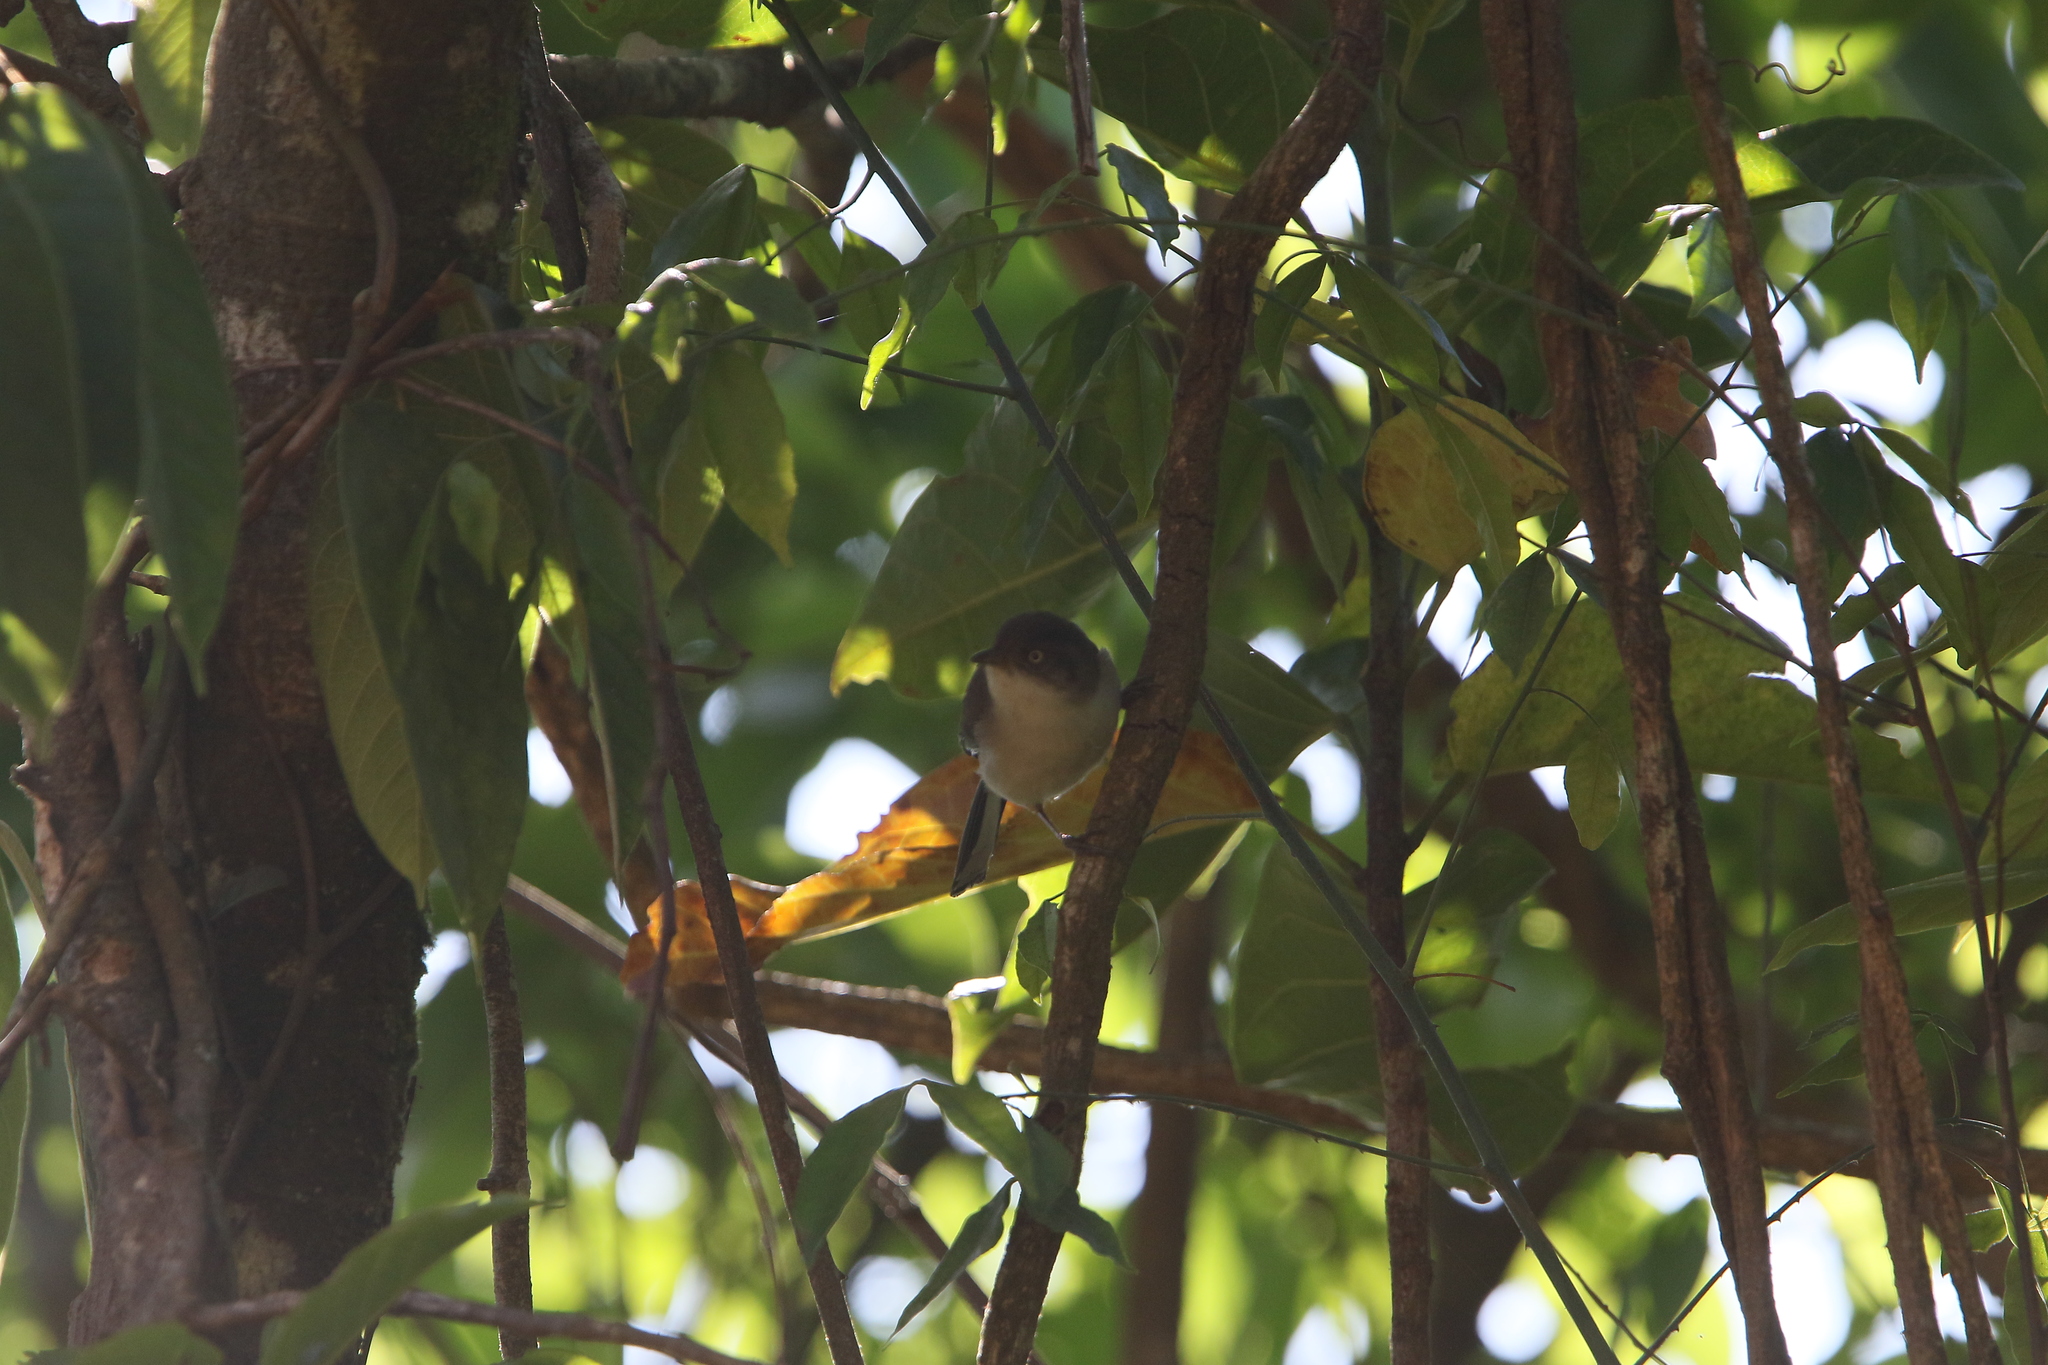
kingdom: Animalia
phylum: Chordata
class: Aves
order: Passeriformes
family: Leiothrichidae
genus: Minla
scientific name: Minla cyanouroptera
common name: Blue-winged minla
